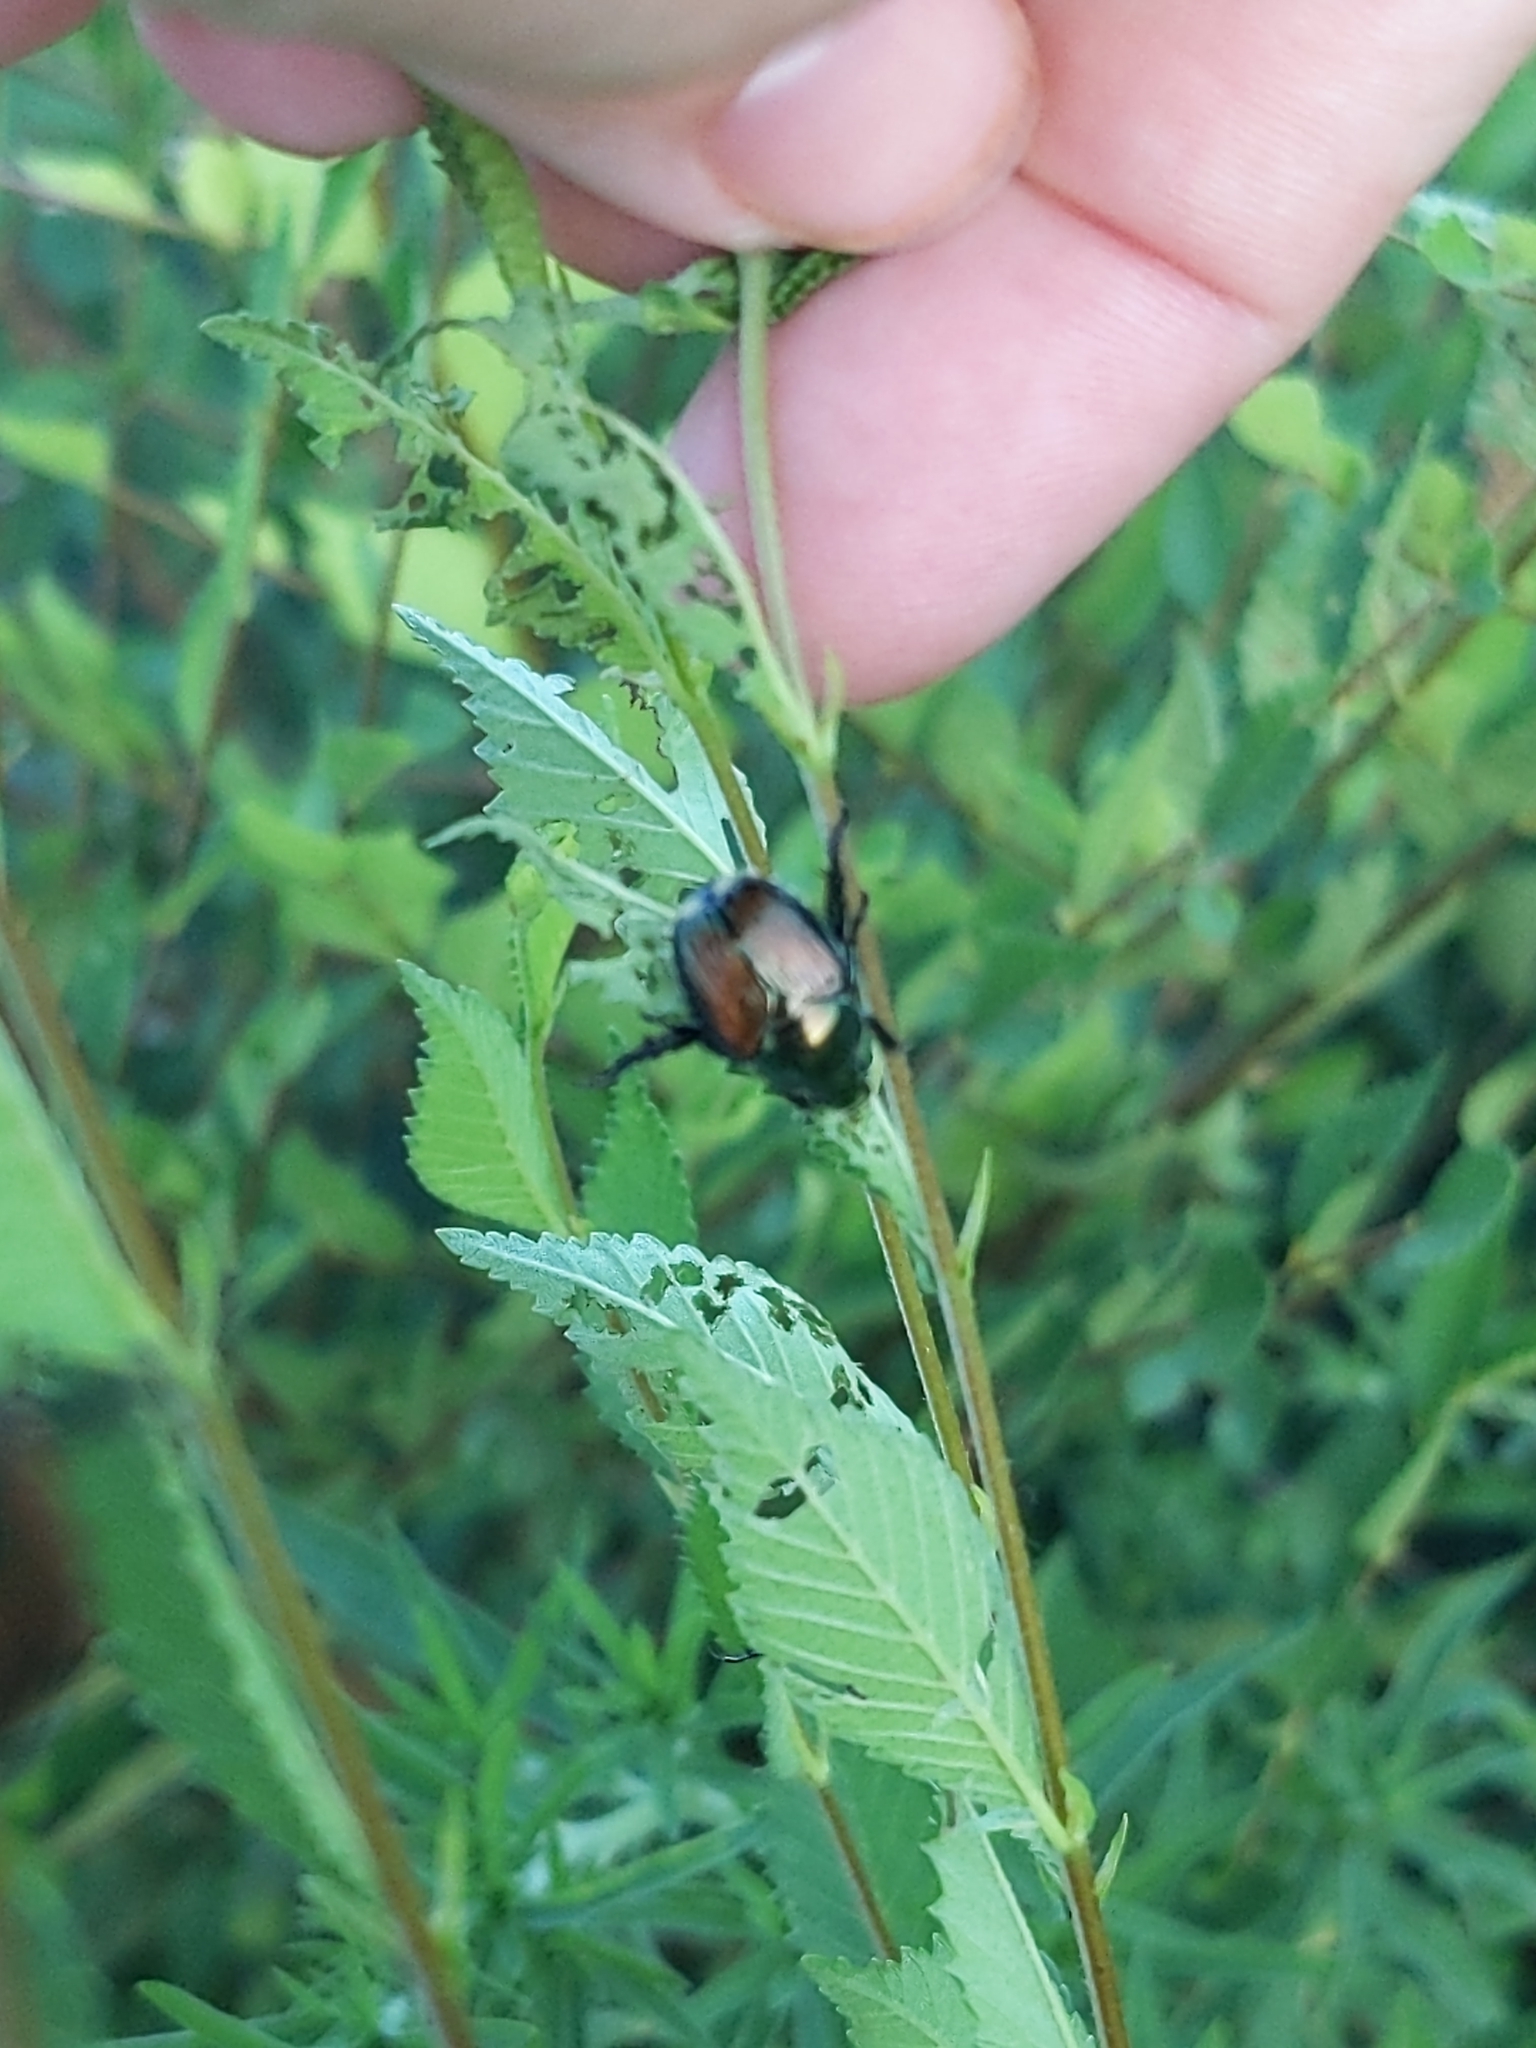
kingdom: Animalia
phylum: Arthropoda
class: Insecta
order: Coleoptera
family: Scarabaeidae
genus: Popillia
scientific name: Popillia japonica
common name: Japanese beetle
